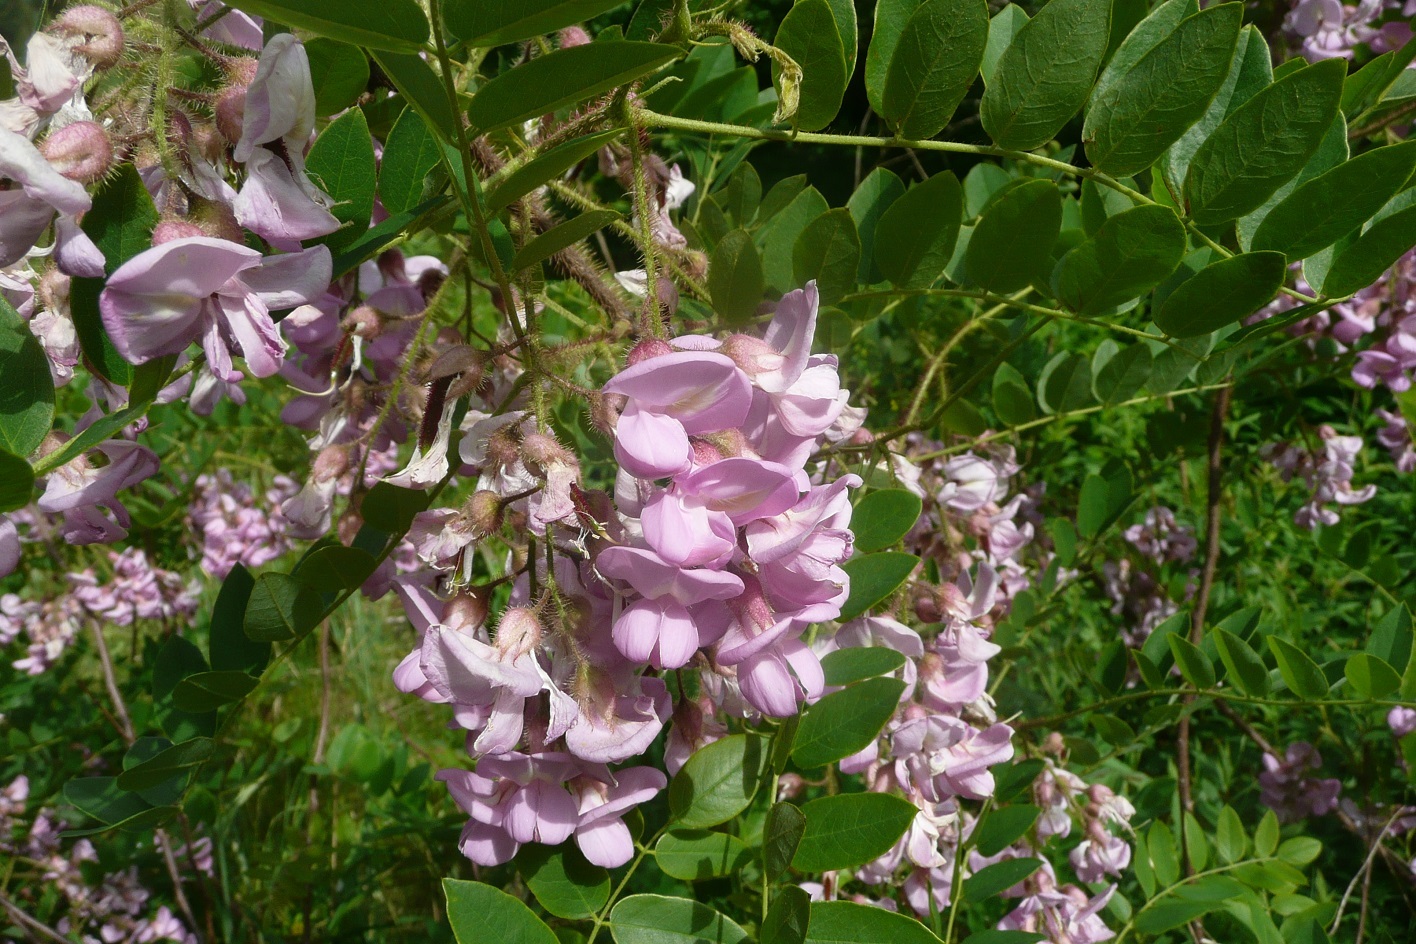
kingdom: Plantae
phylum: Tracheophyta
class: Magnoliopsida
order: Fabales
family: Fabaceae
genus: Robinia
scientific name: Robinia hispida
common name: Bristly locust
